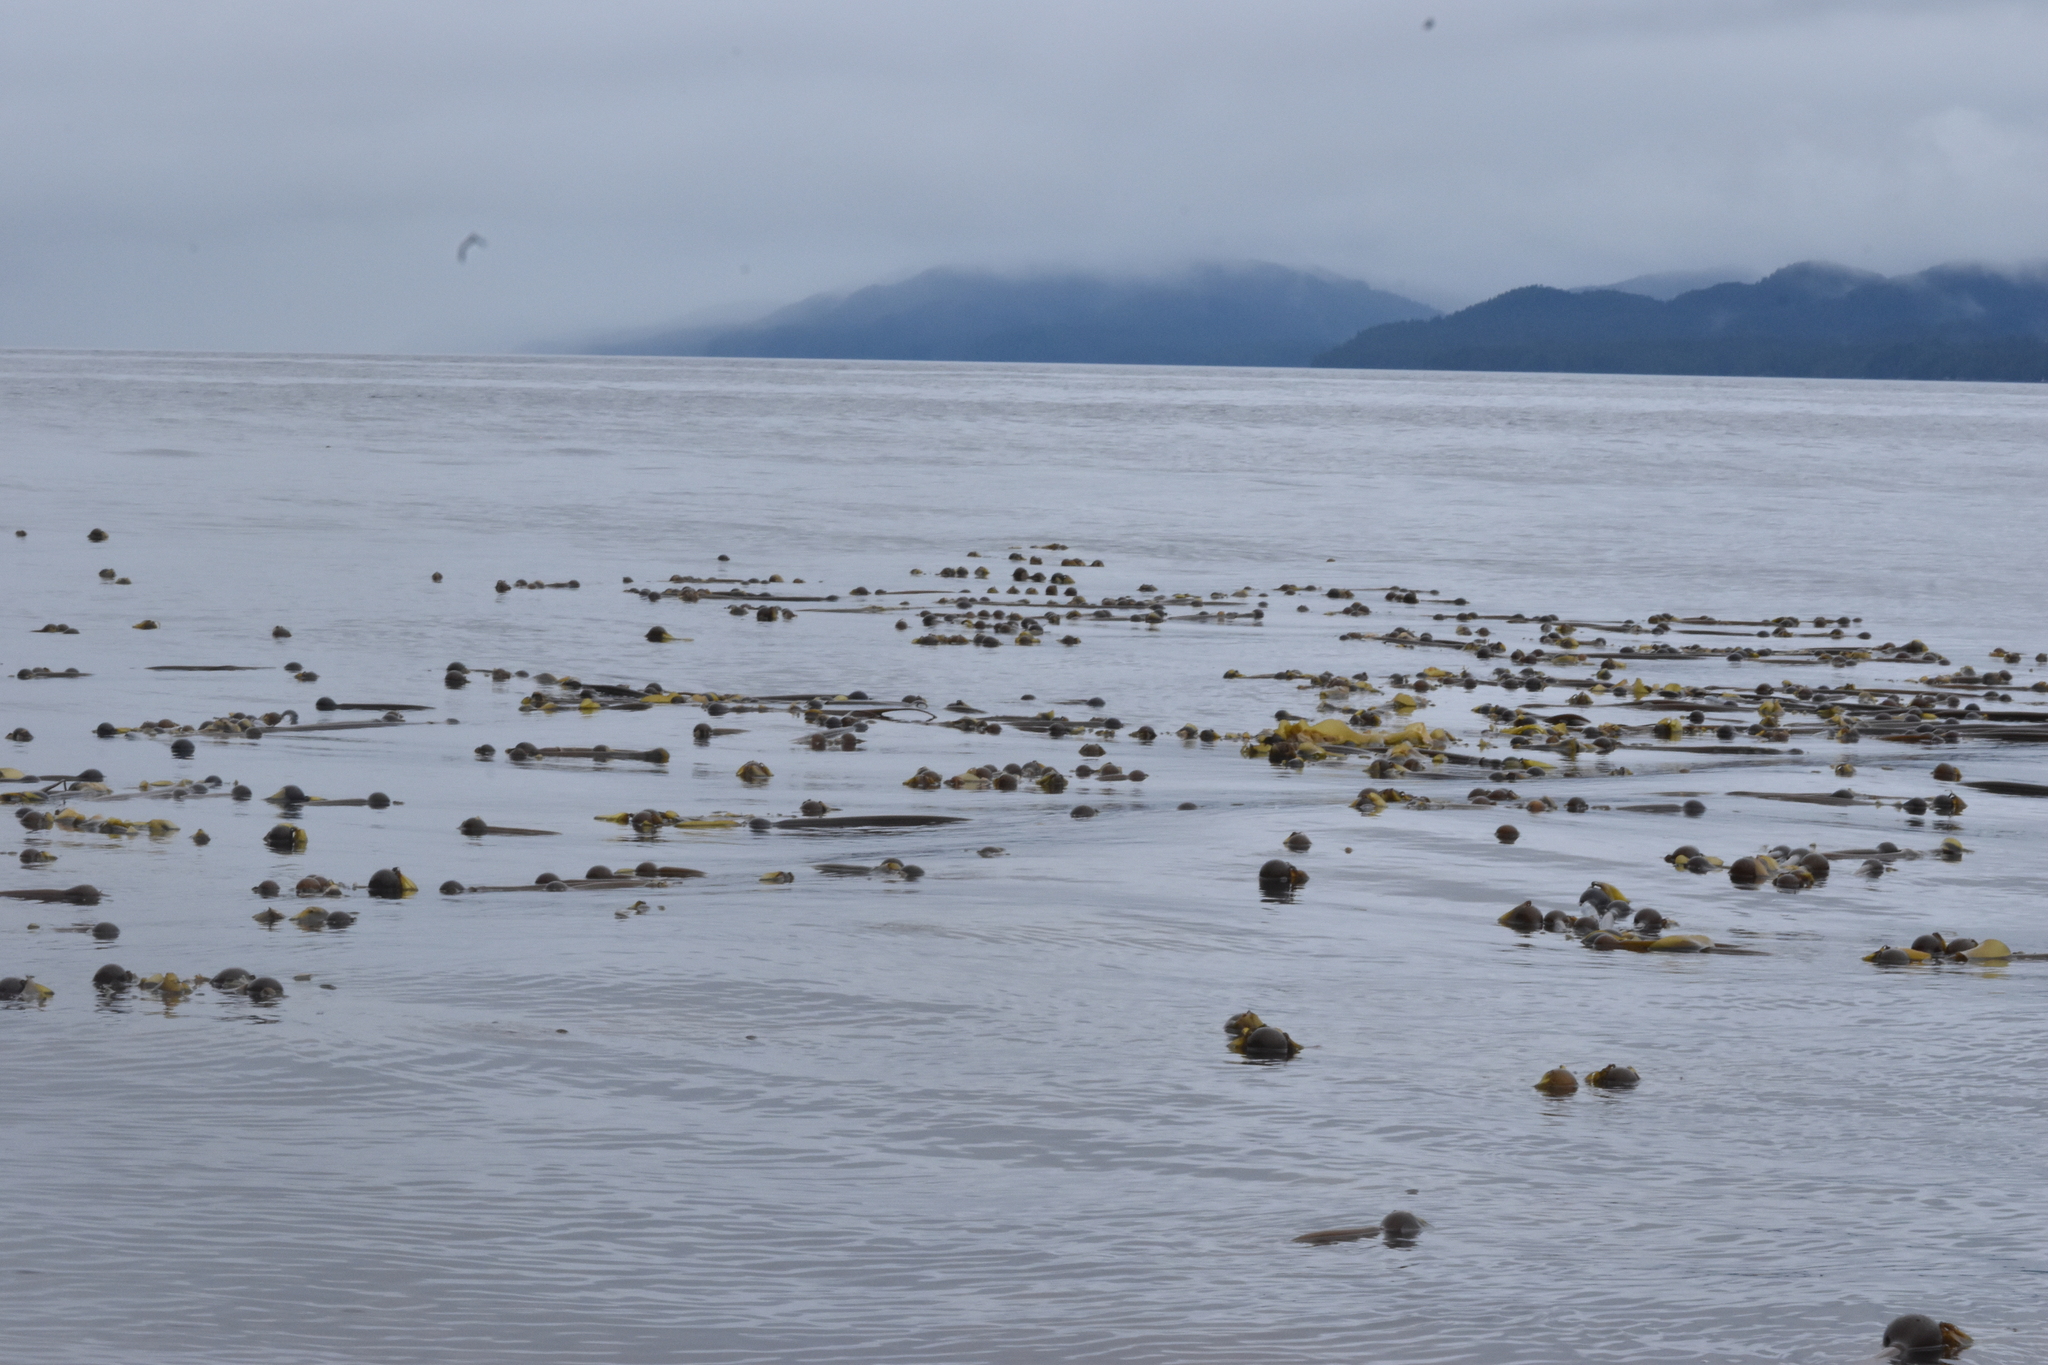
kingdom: Chromista
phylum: Ochrophyta
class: Phaeophyceae
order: Laminariales
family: Laminariaceae
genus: Nereocystis
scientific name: Nereocystis luetkeana
